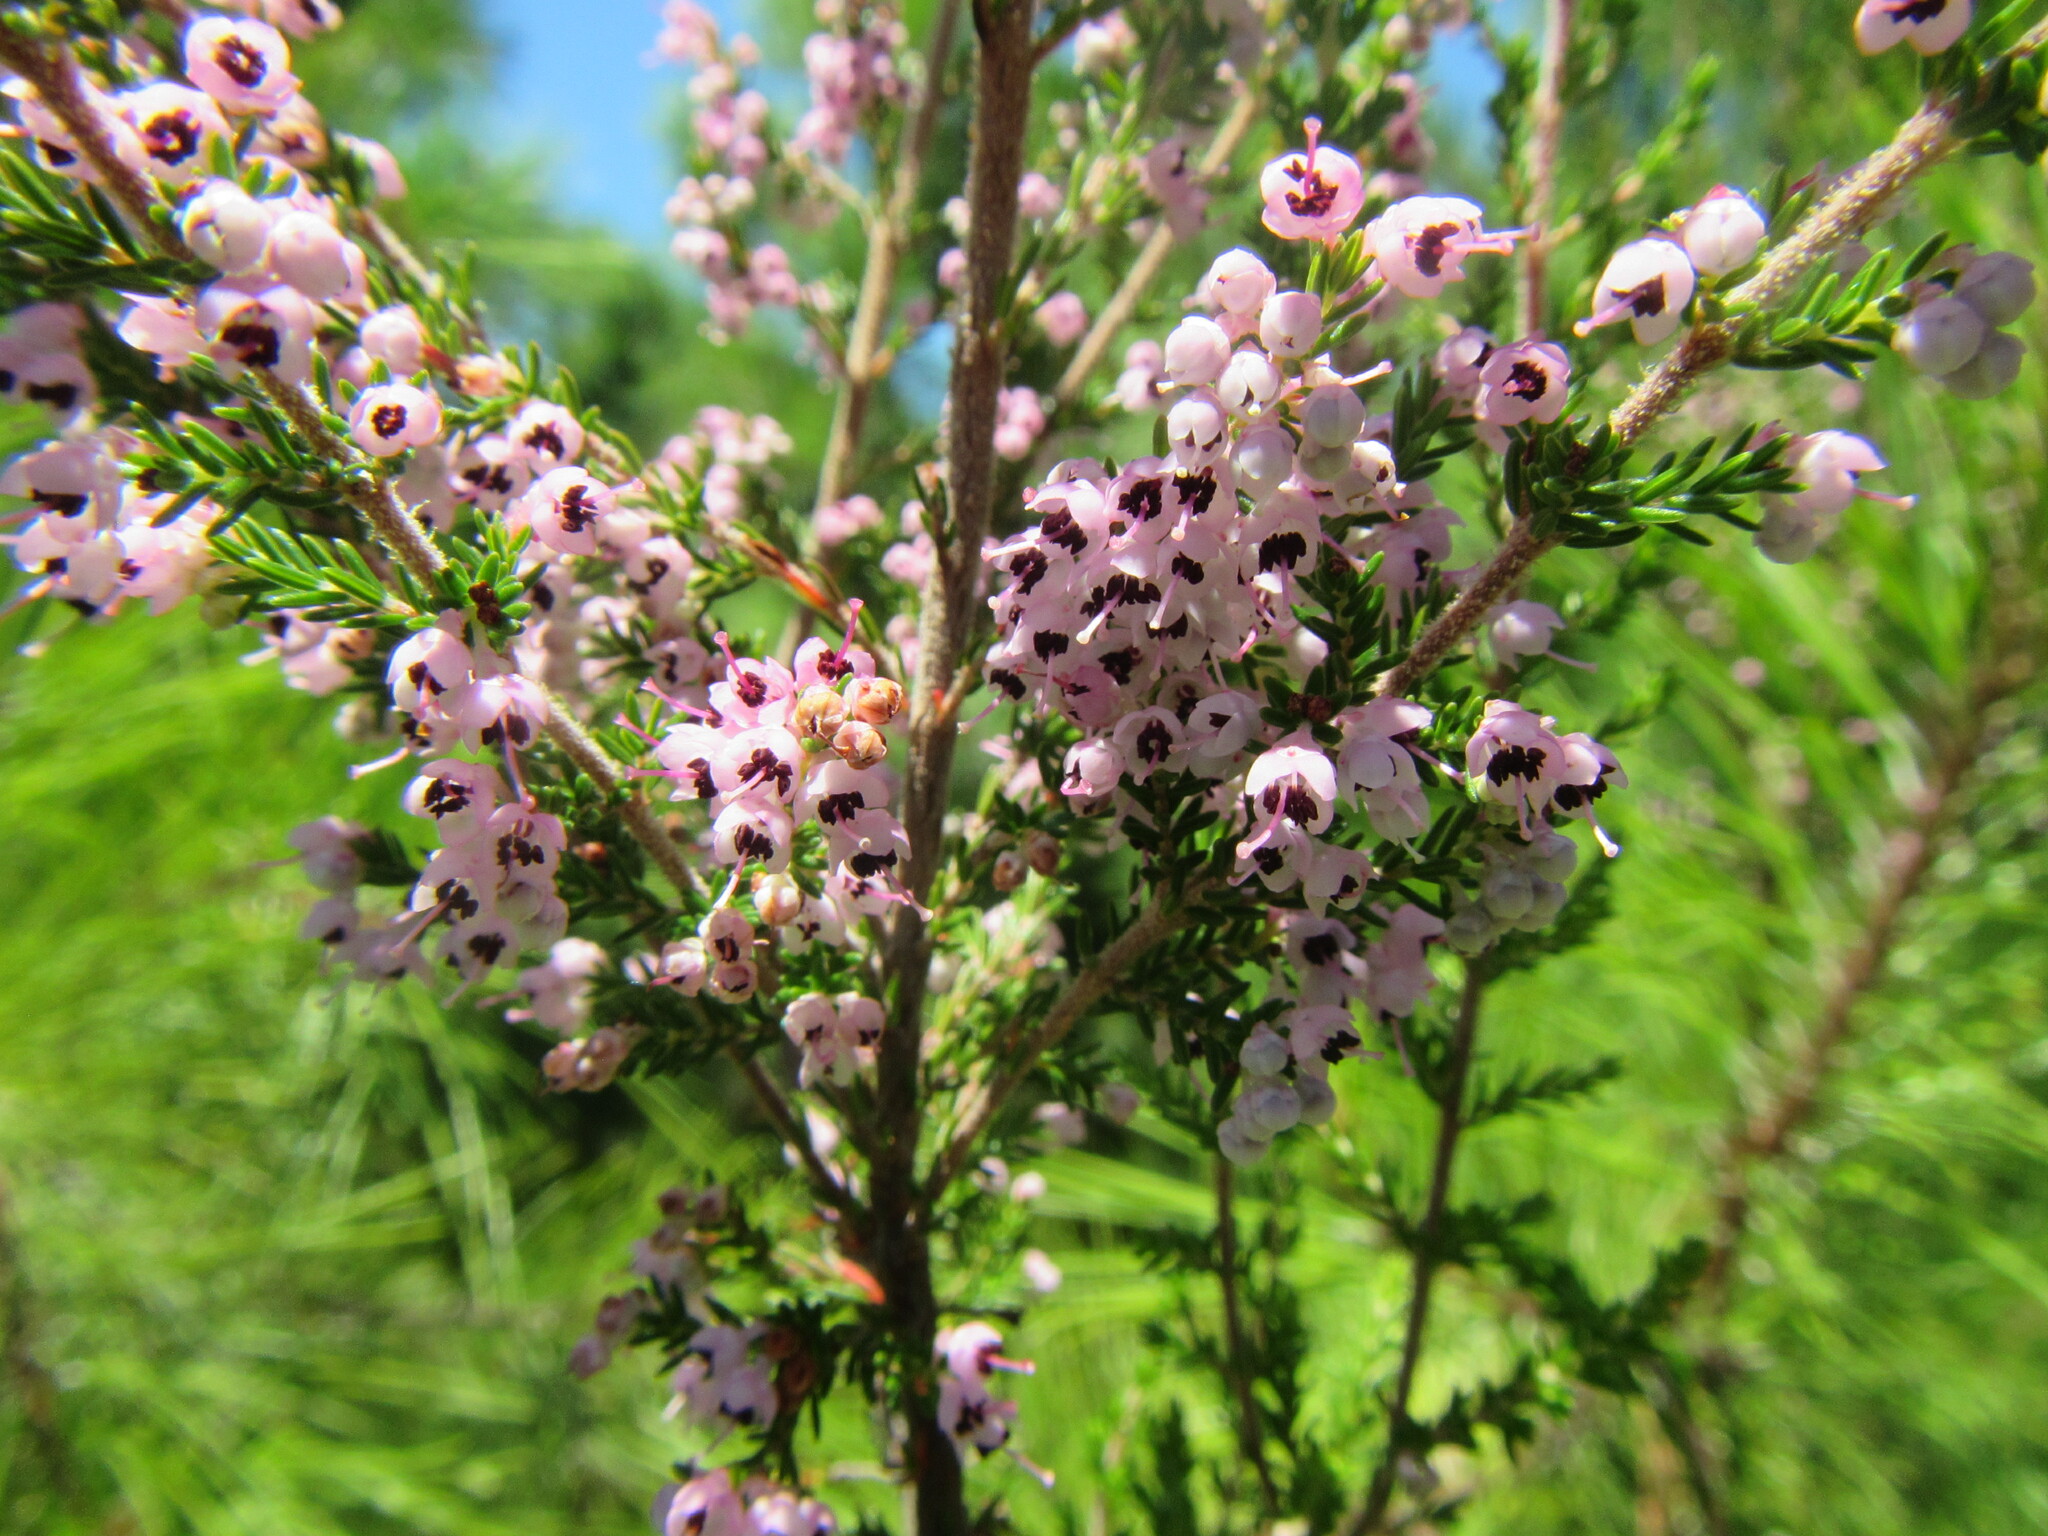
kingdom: Plantae
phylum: Tracheophyta
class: Magnoliopsida
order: Ericales
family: Ericaceae
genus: Erica
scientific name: Erica sparsa
